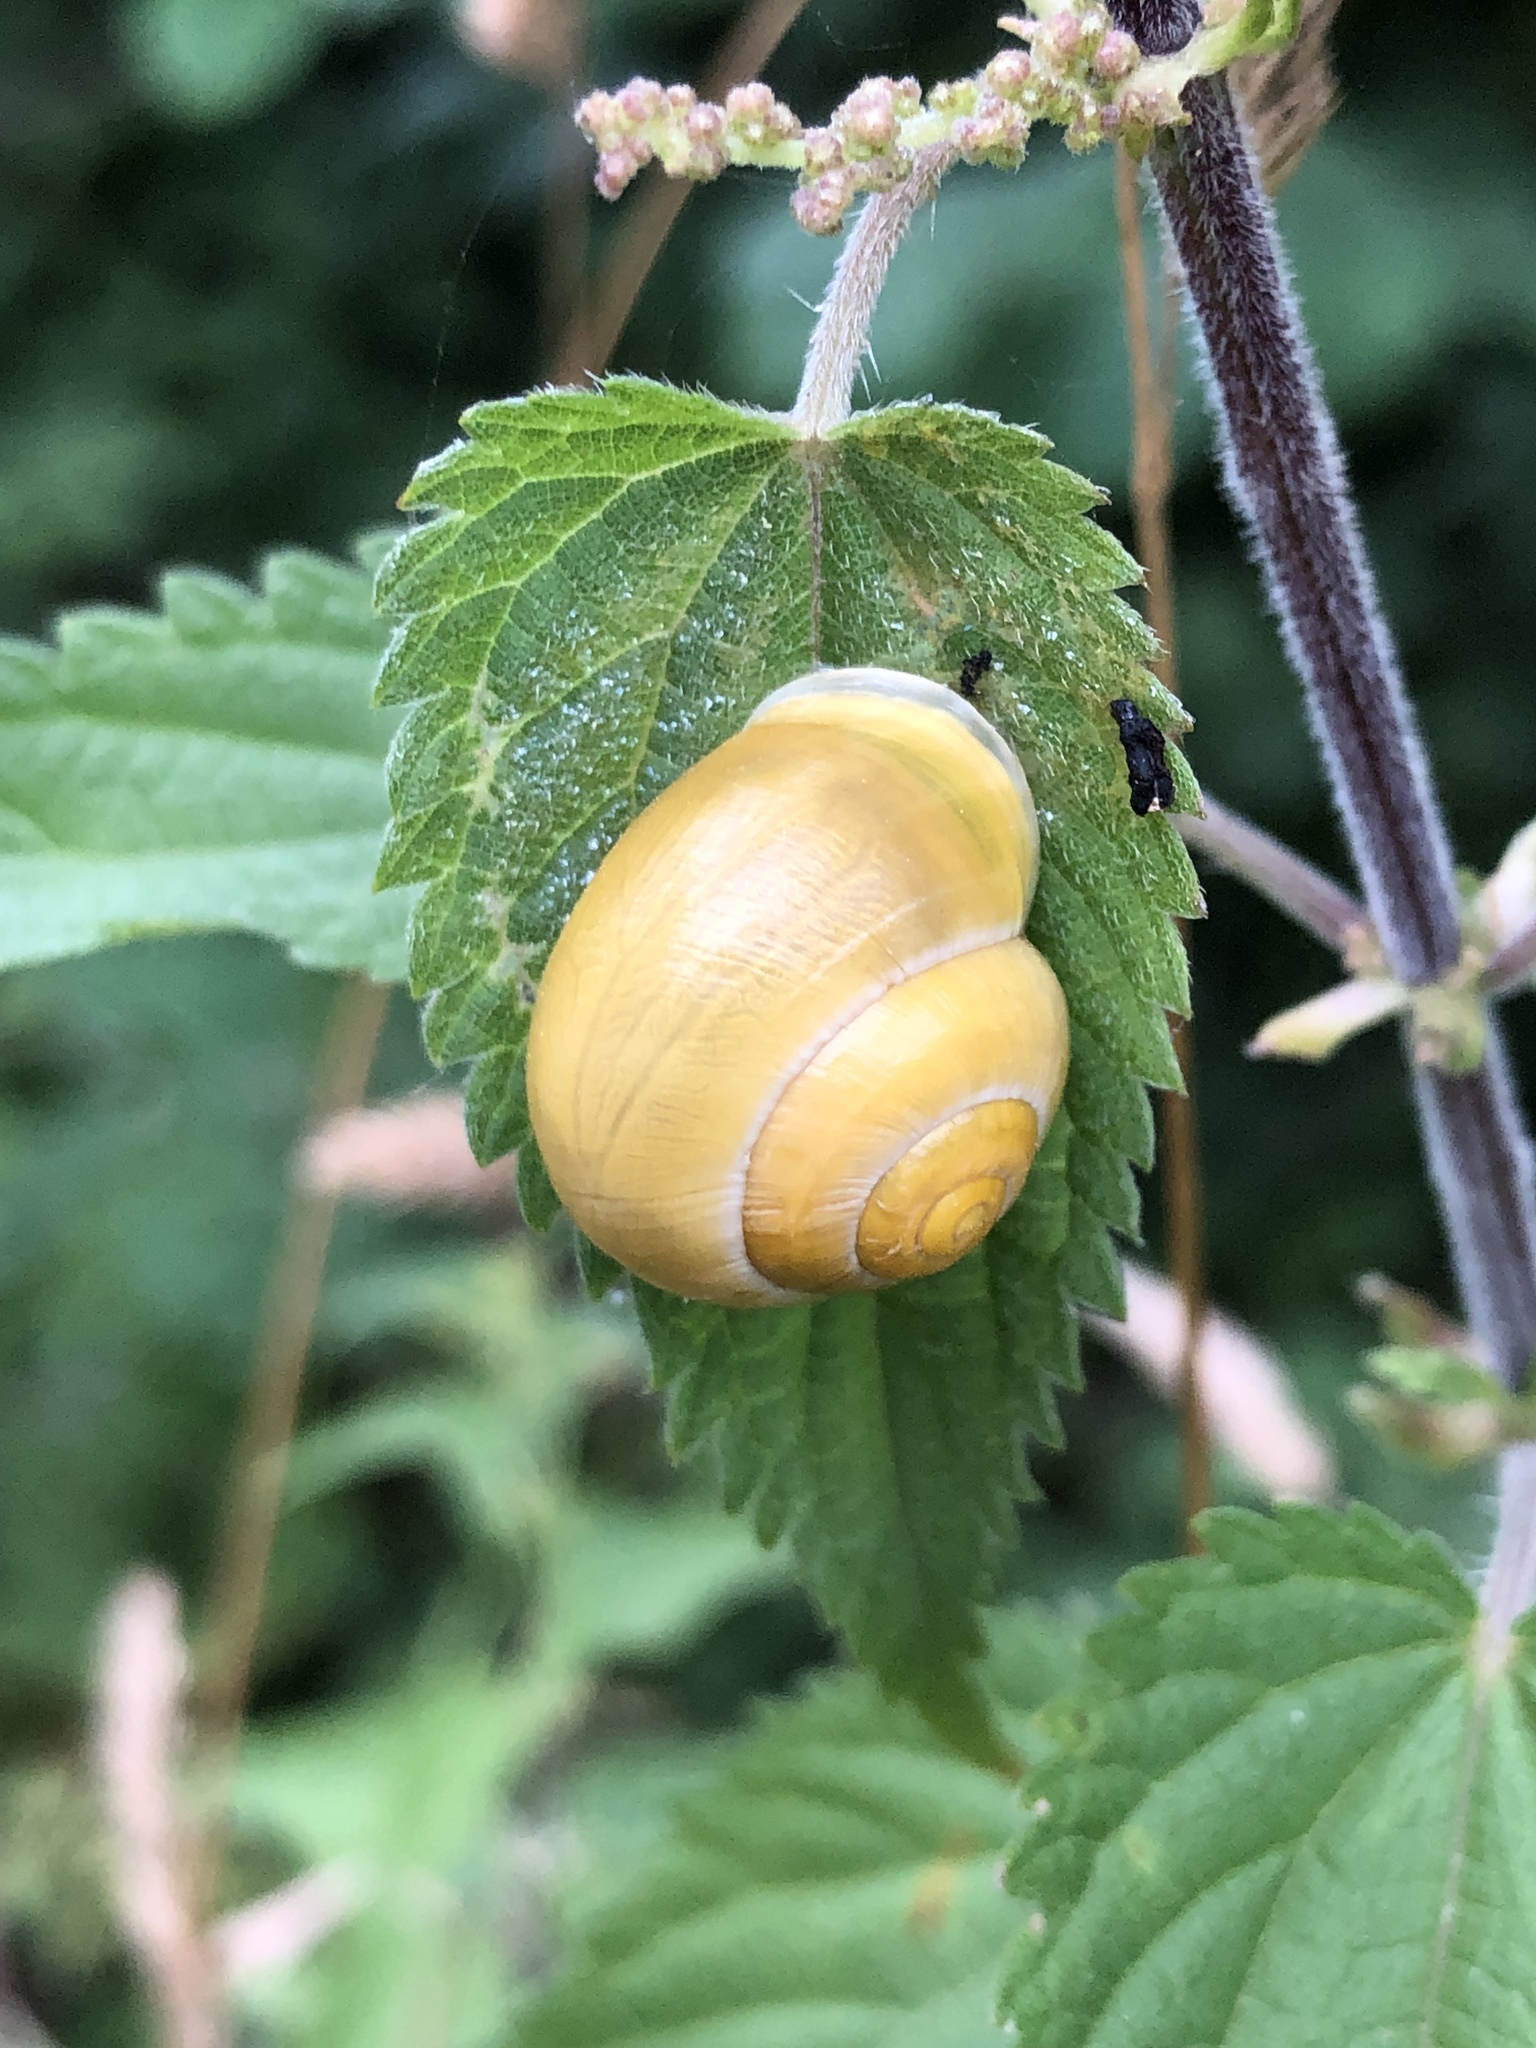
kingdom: Animalia
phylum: Mollusca
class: Gastropoda
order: Stylommatophora
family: Helicidae
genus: Cepaea
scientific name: Cepaea hortensis
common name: White-lip gardensnail
